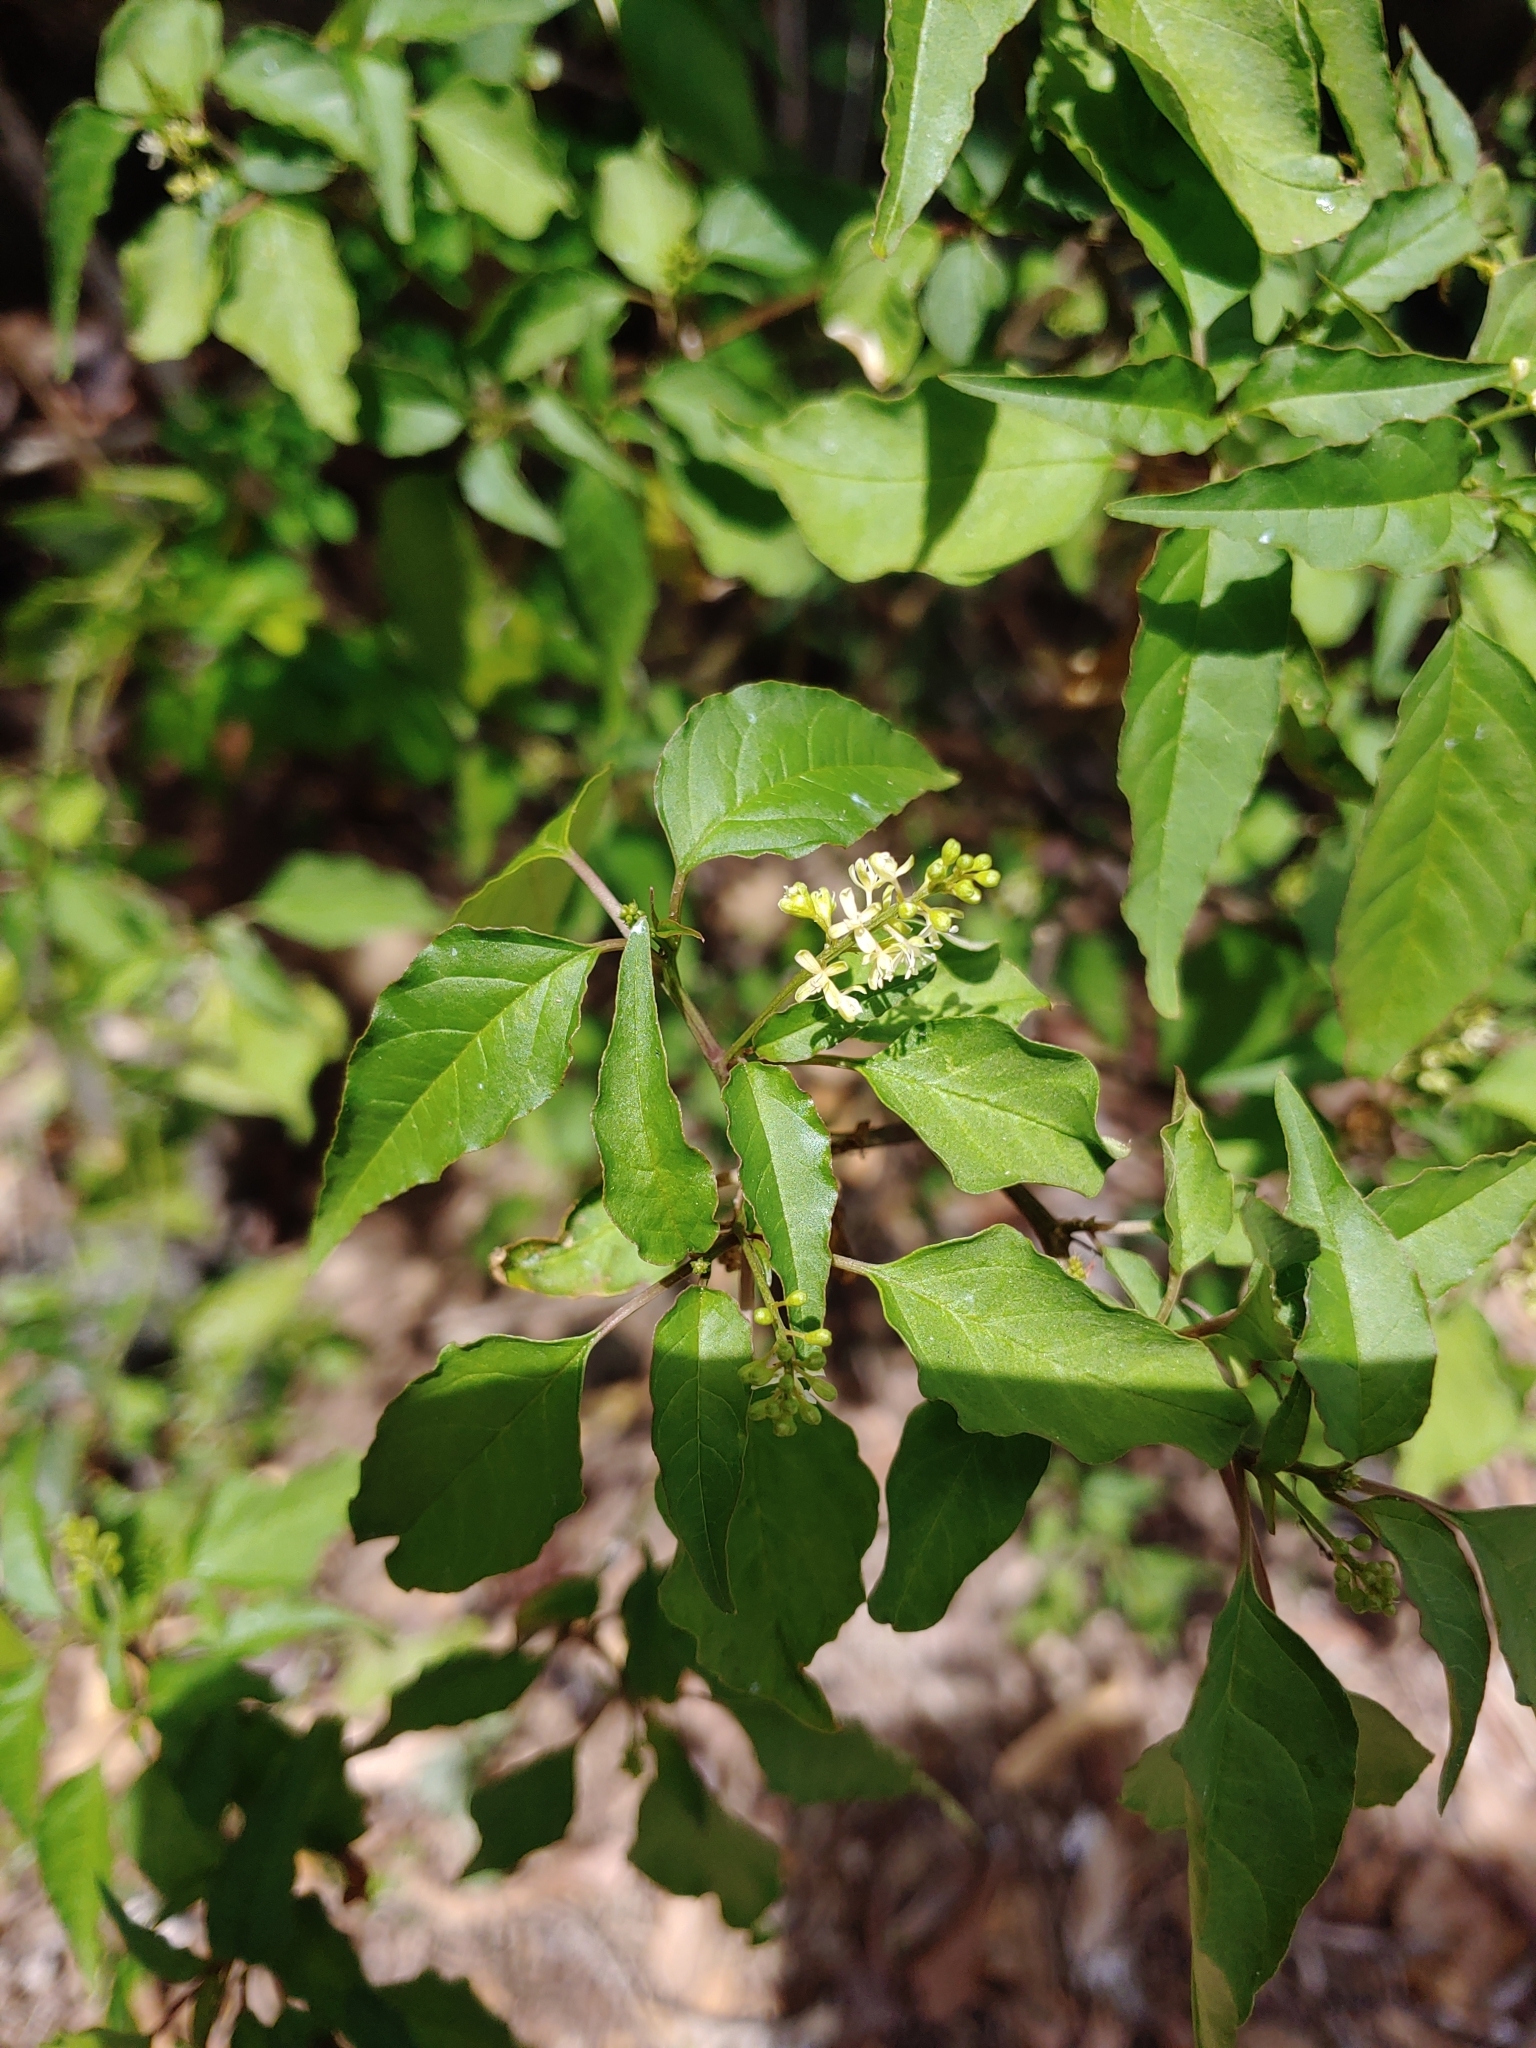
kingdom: Plantae
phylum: Tracheophyta
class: Magnoliopsida
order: Caryophyllales
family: Phytolaccaceae
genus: Rivina
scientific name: Rivina humilis
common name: Rougeplant
